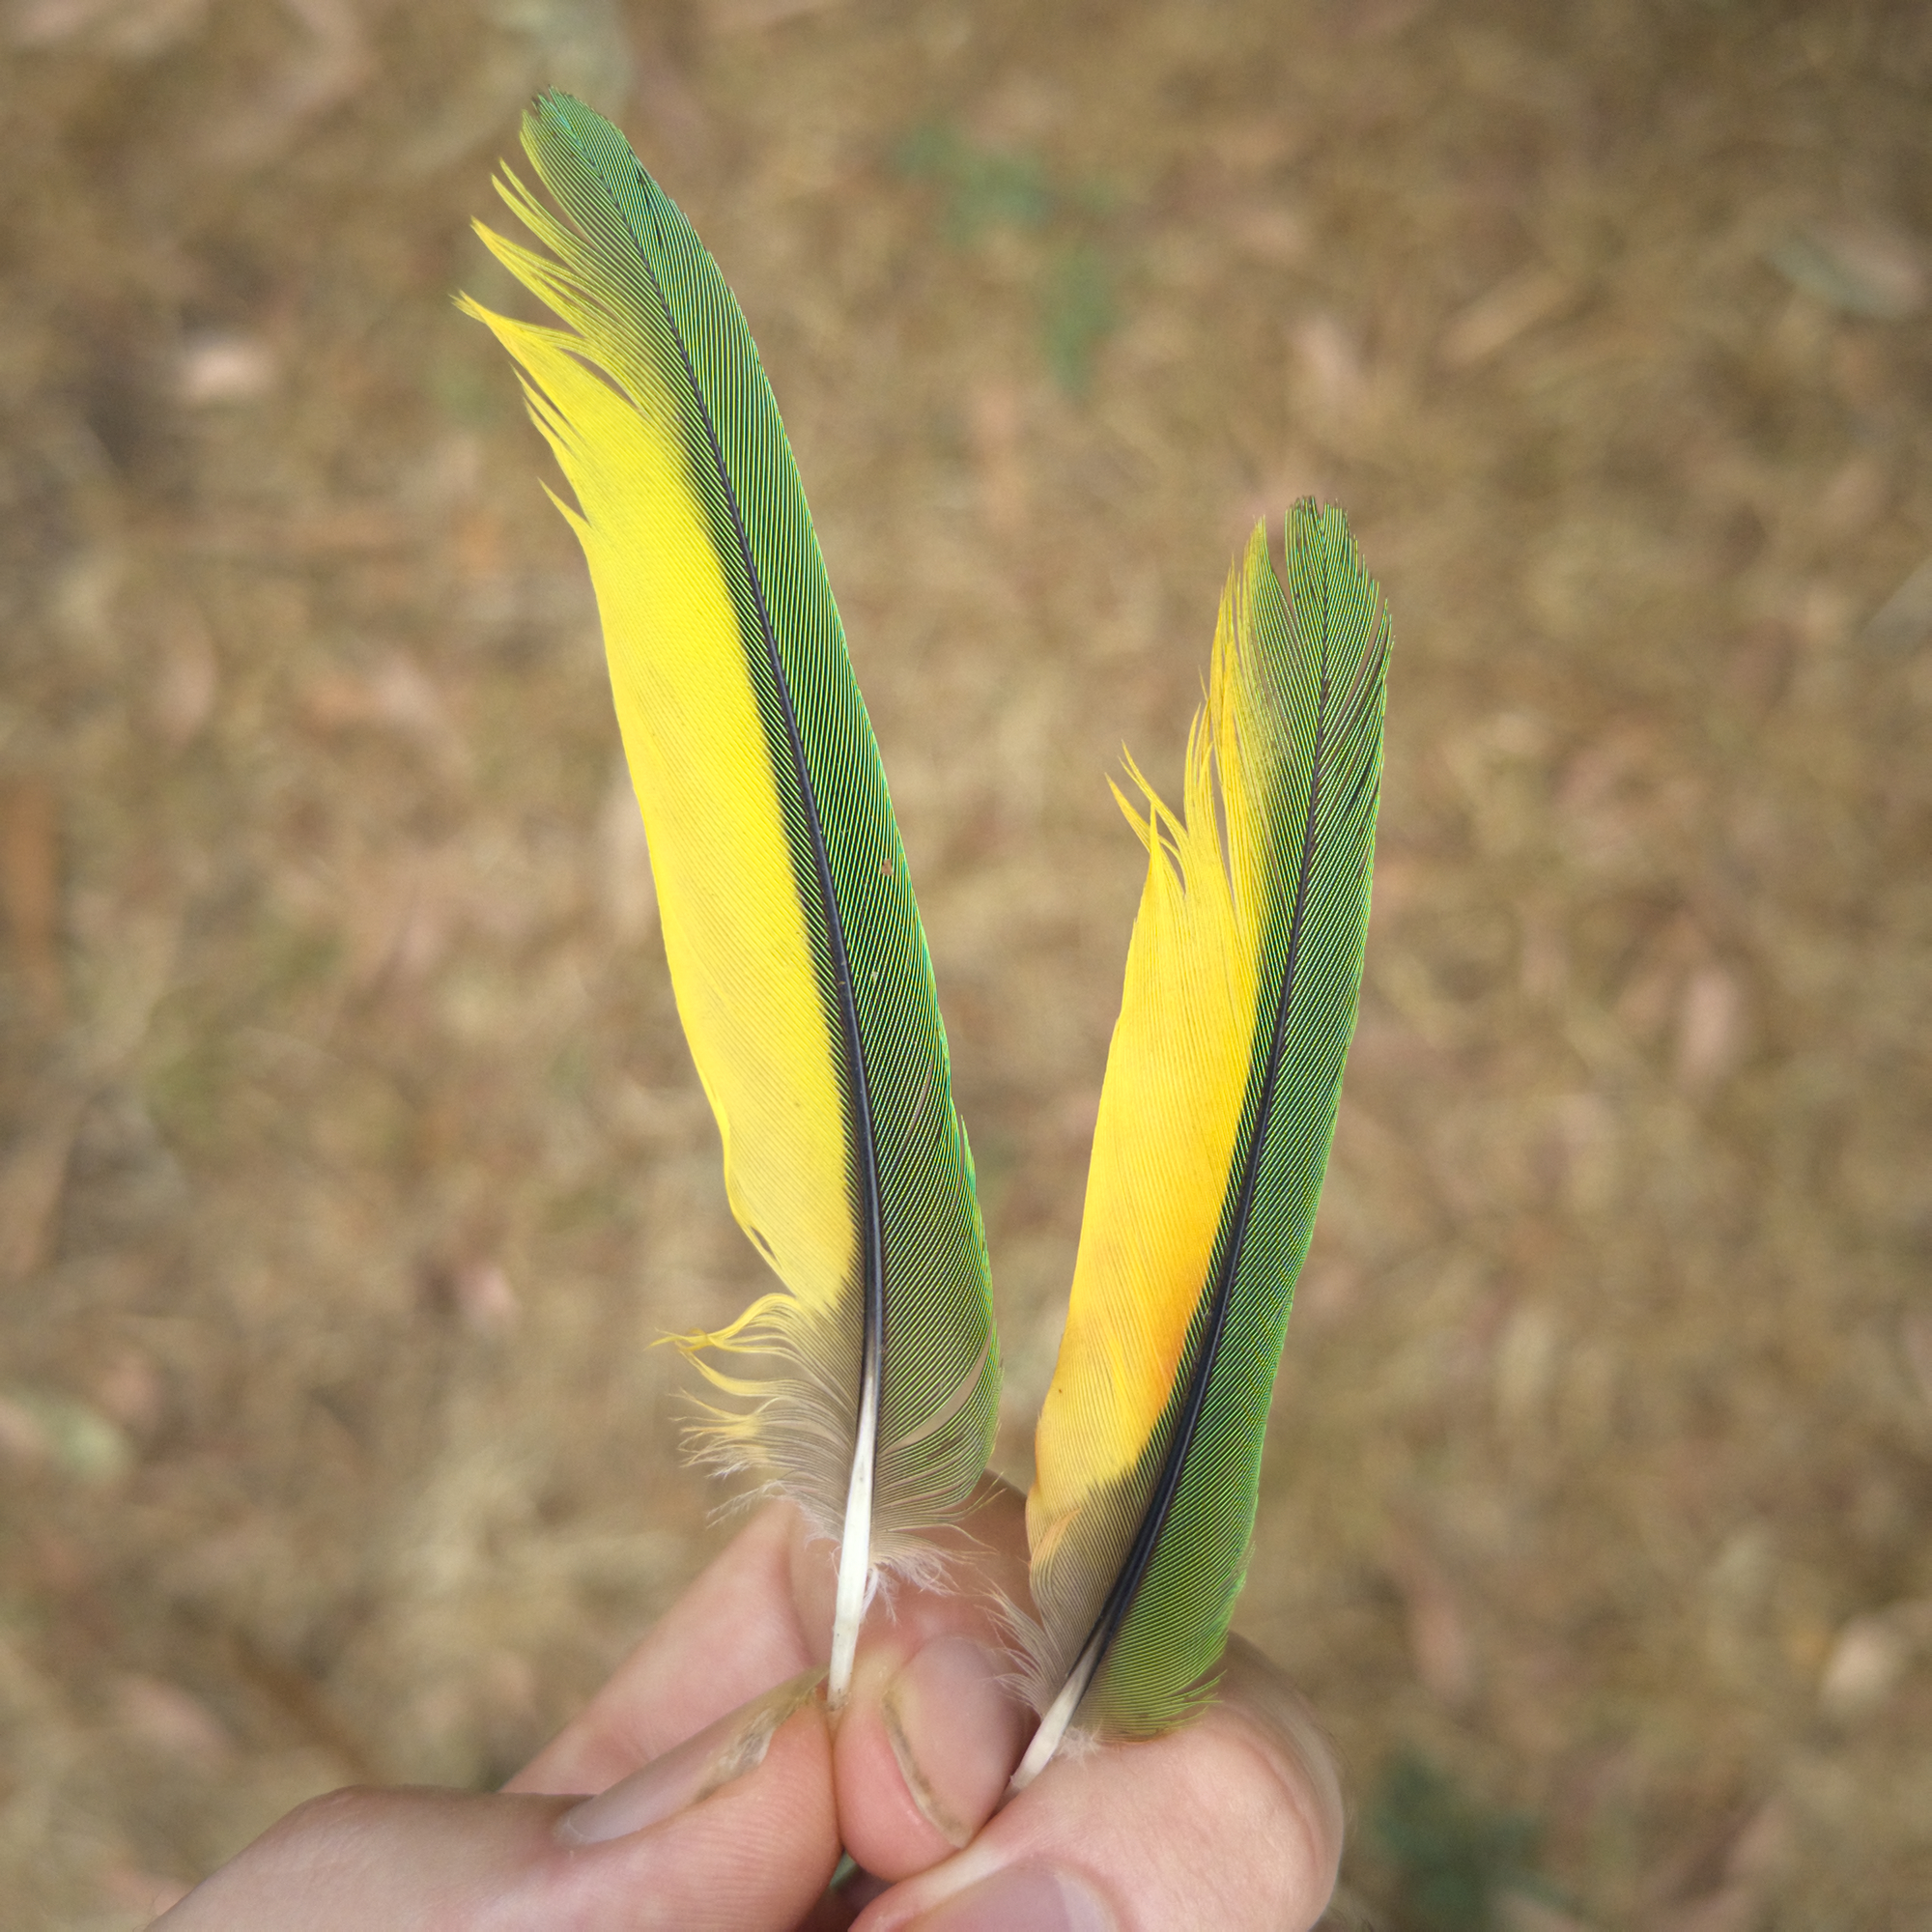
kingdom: Animalia
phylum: Chordata
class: Aves
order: Psittaciformes
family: Psittacidae
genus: Trichoglossus
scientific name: Trichoglossus haematodus
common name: Coconut lorikeet
